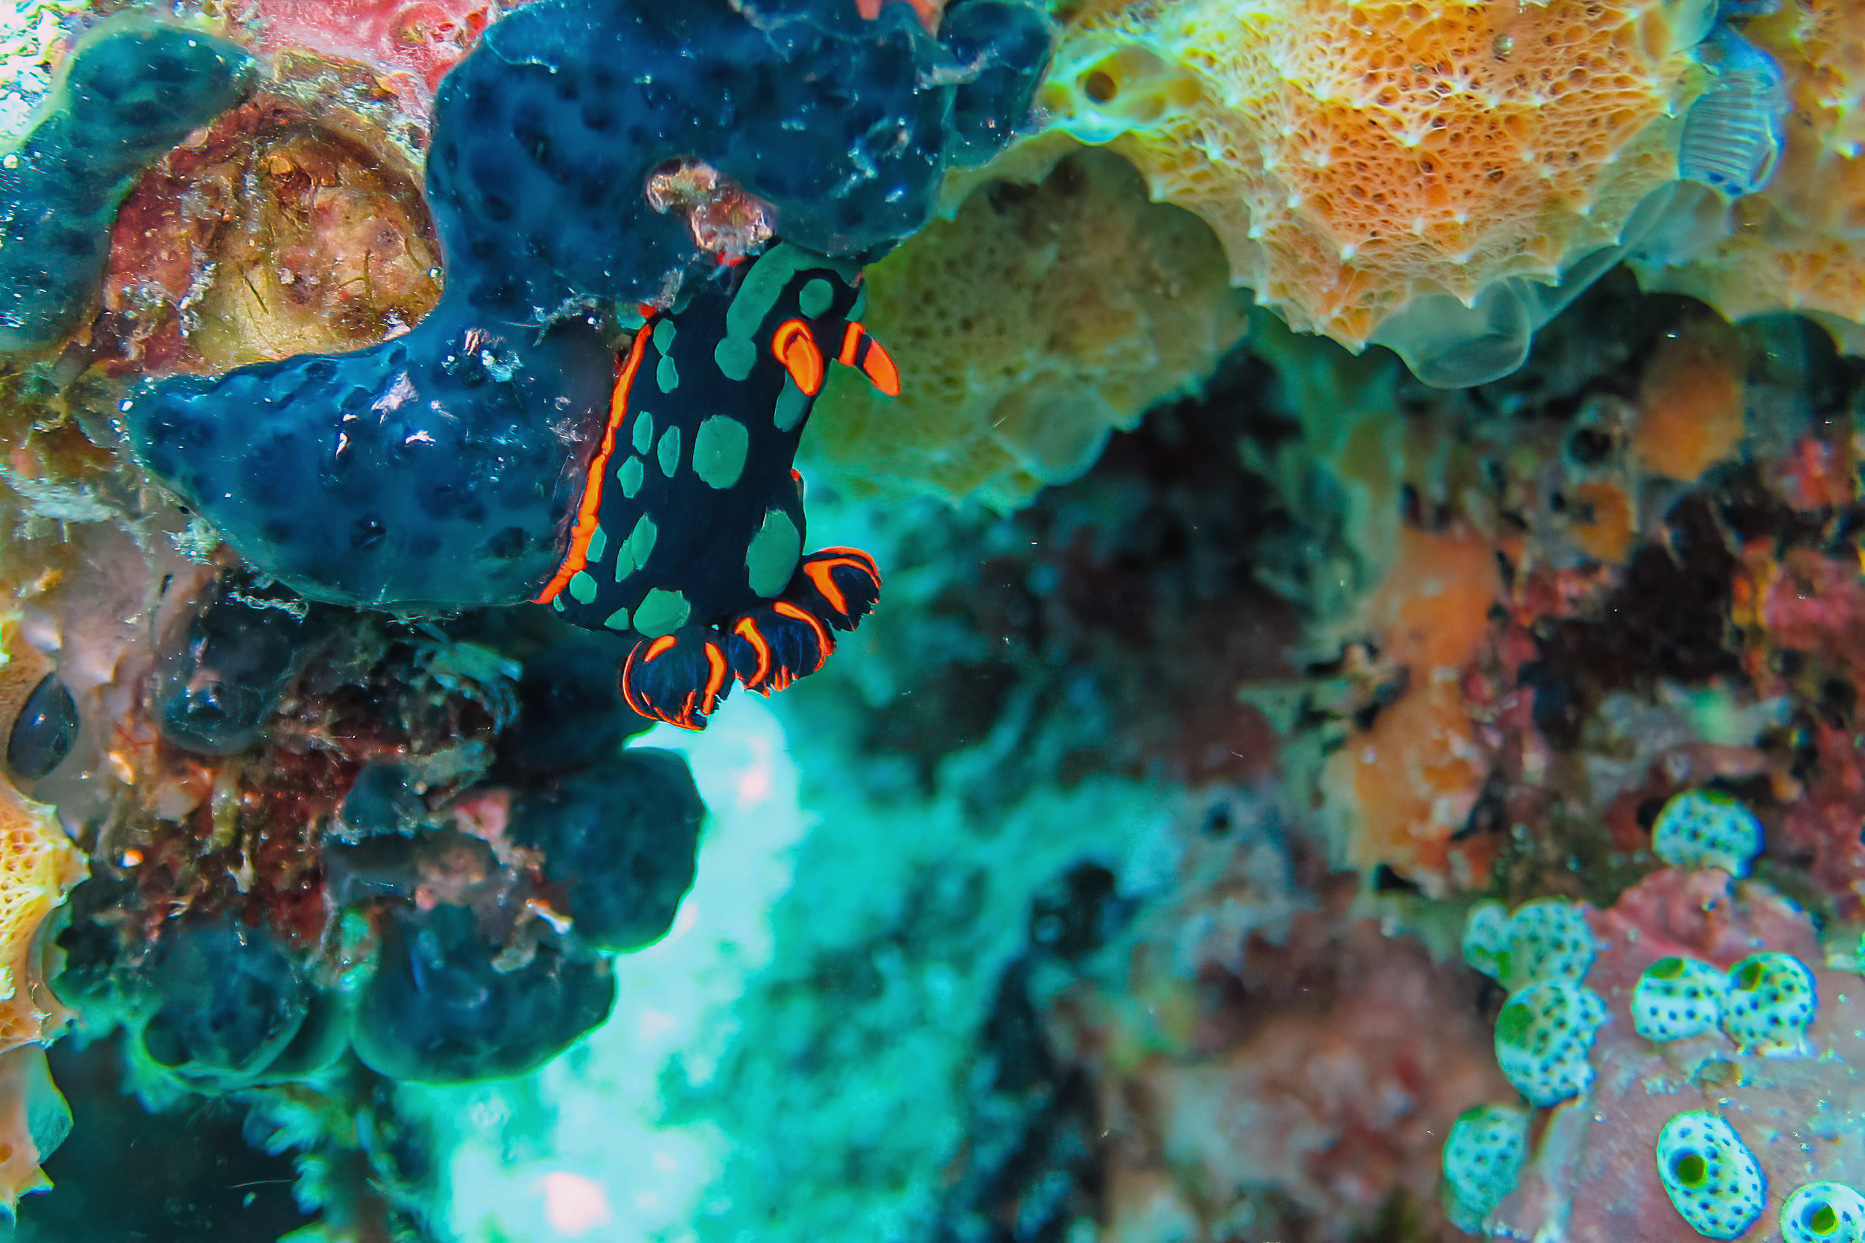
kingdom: Animalia
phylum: Mollusca
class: Gastropoda
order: Nudibranchia
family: Polyceridae
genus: Nembrotha
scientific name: Nembrotha kubaryana
